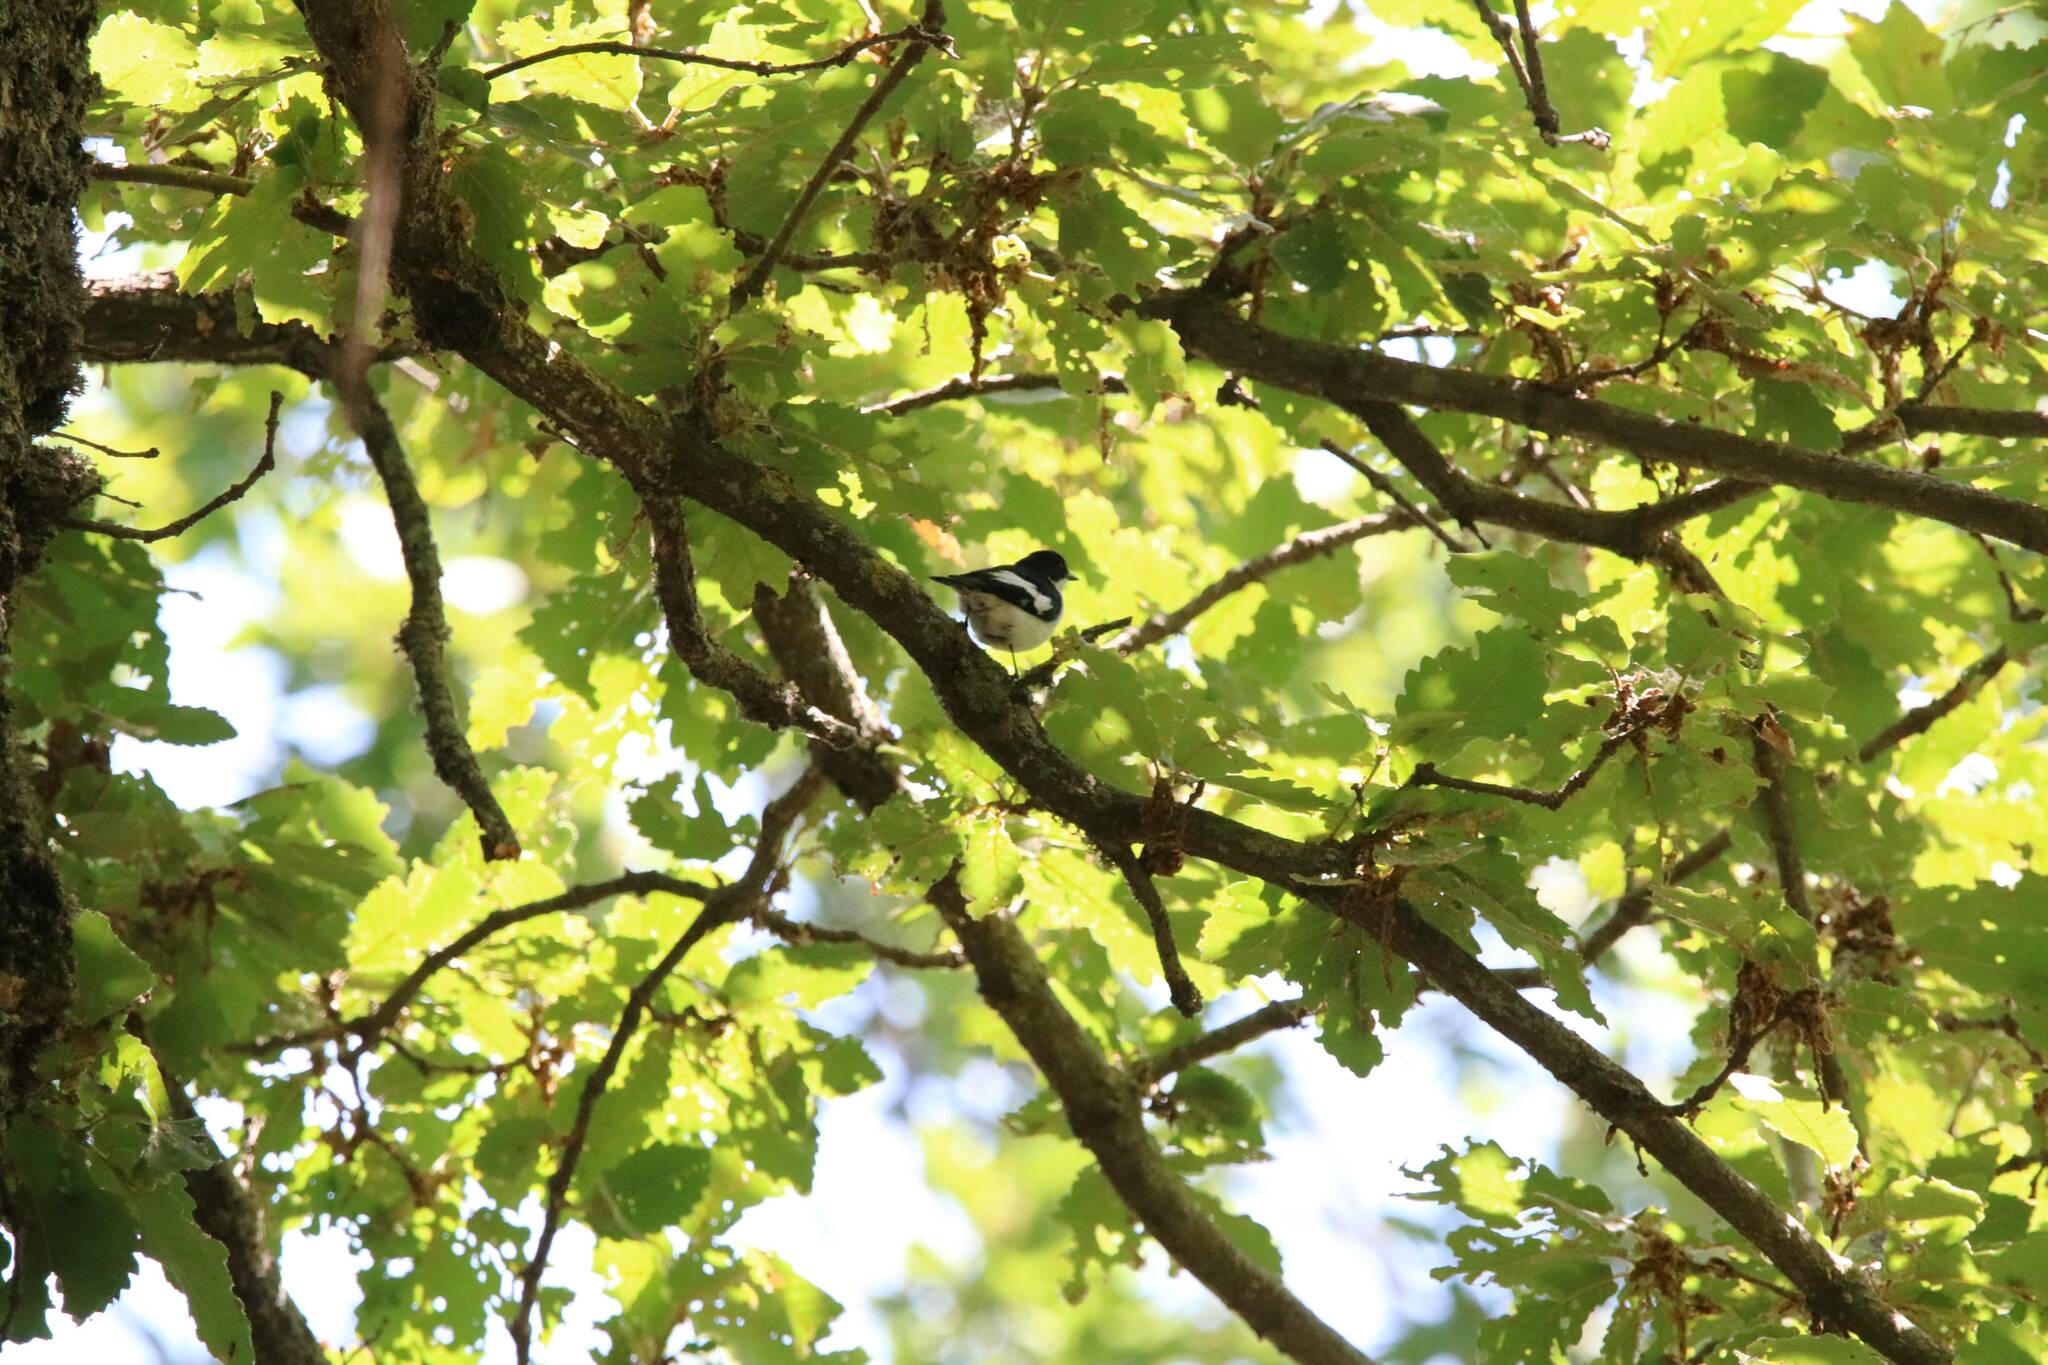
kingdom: Animalia
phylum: Chordata
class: Aves
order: Passeriformes
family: Muscicapidae
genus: Ficedula
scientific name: Ficedula speculigera
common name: Atlas pied flycatcher
